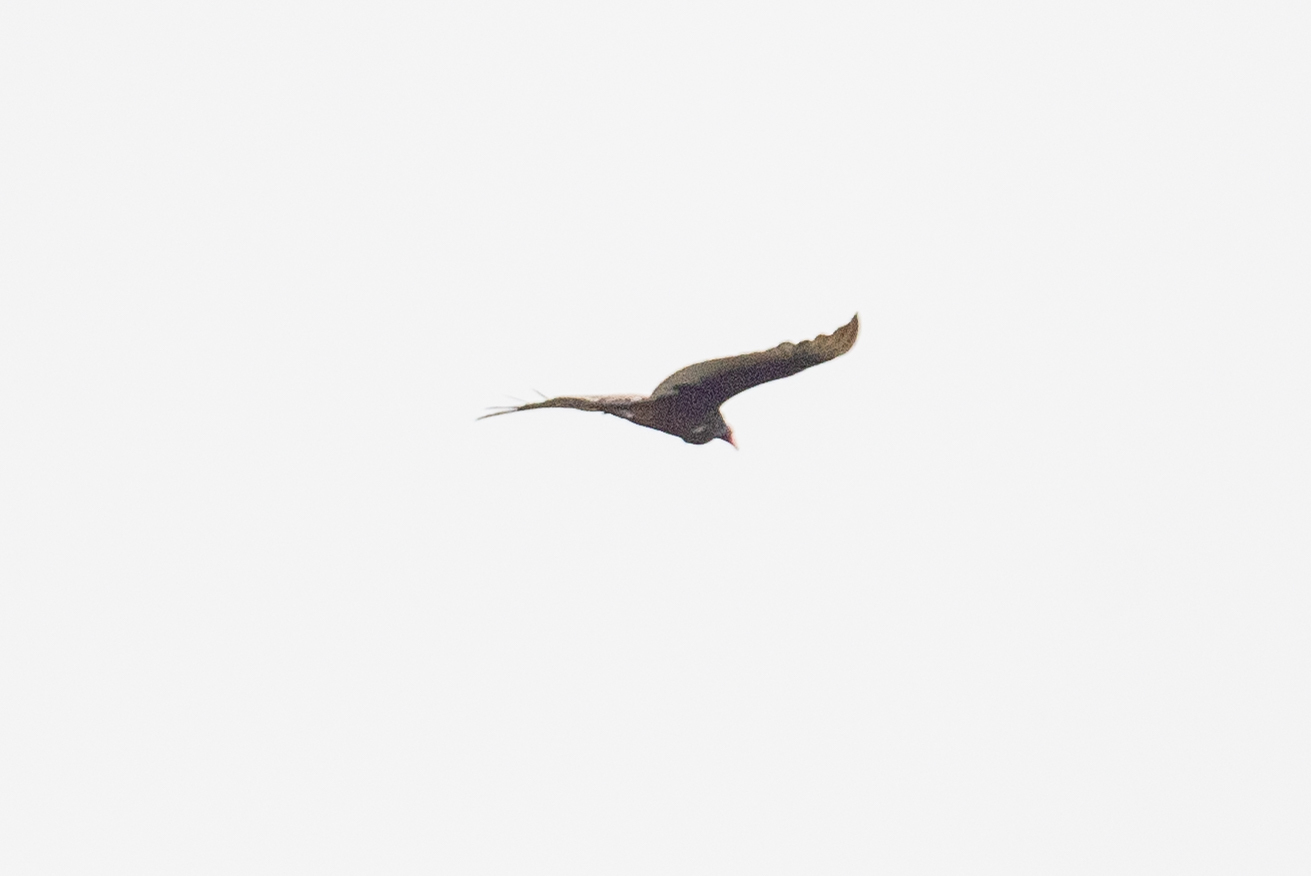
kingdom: Animalia
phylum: Chordata
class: Aves
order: Accipitriformes
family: Cathartidae
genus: Cathartes
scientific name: Cathartes aura
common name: Turkey vulture
